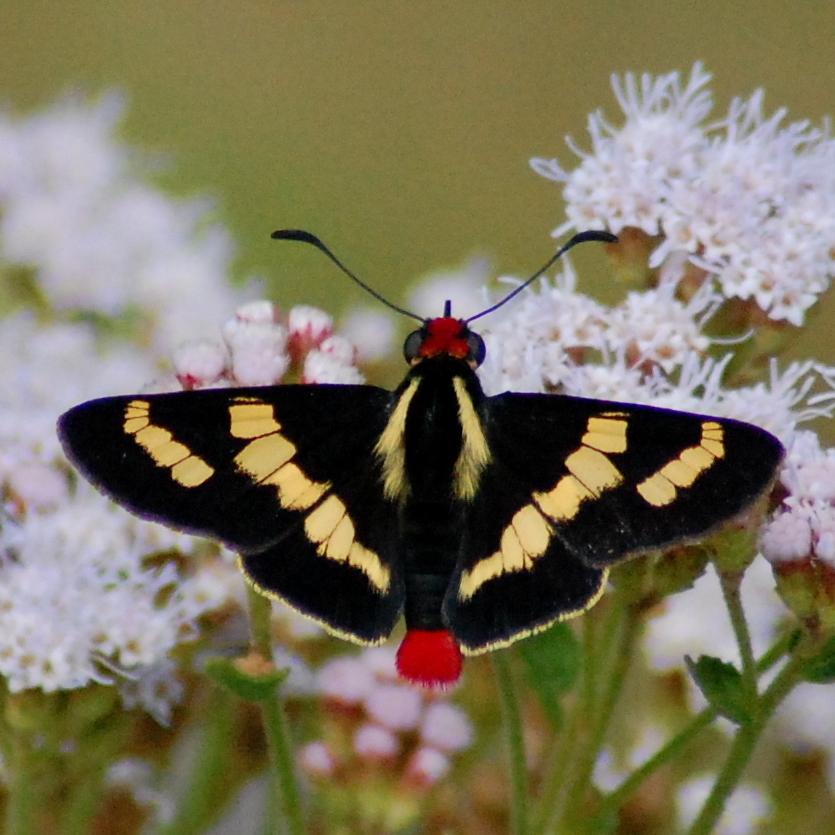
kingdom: Animalia
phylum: Arthropoda
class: Insecta
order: Lepidoptera
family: Hesperiidae
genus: Sarbia
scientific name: Sarbia damippe
